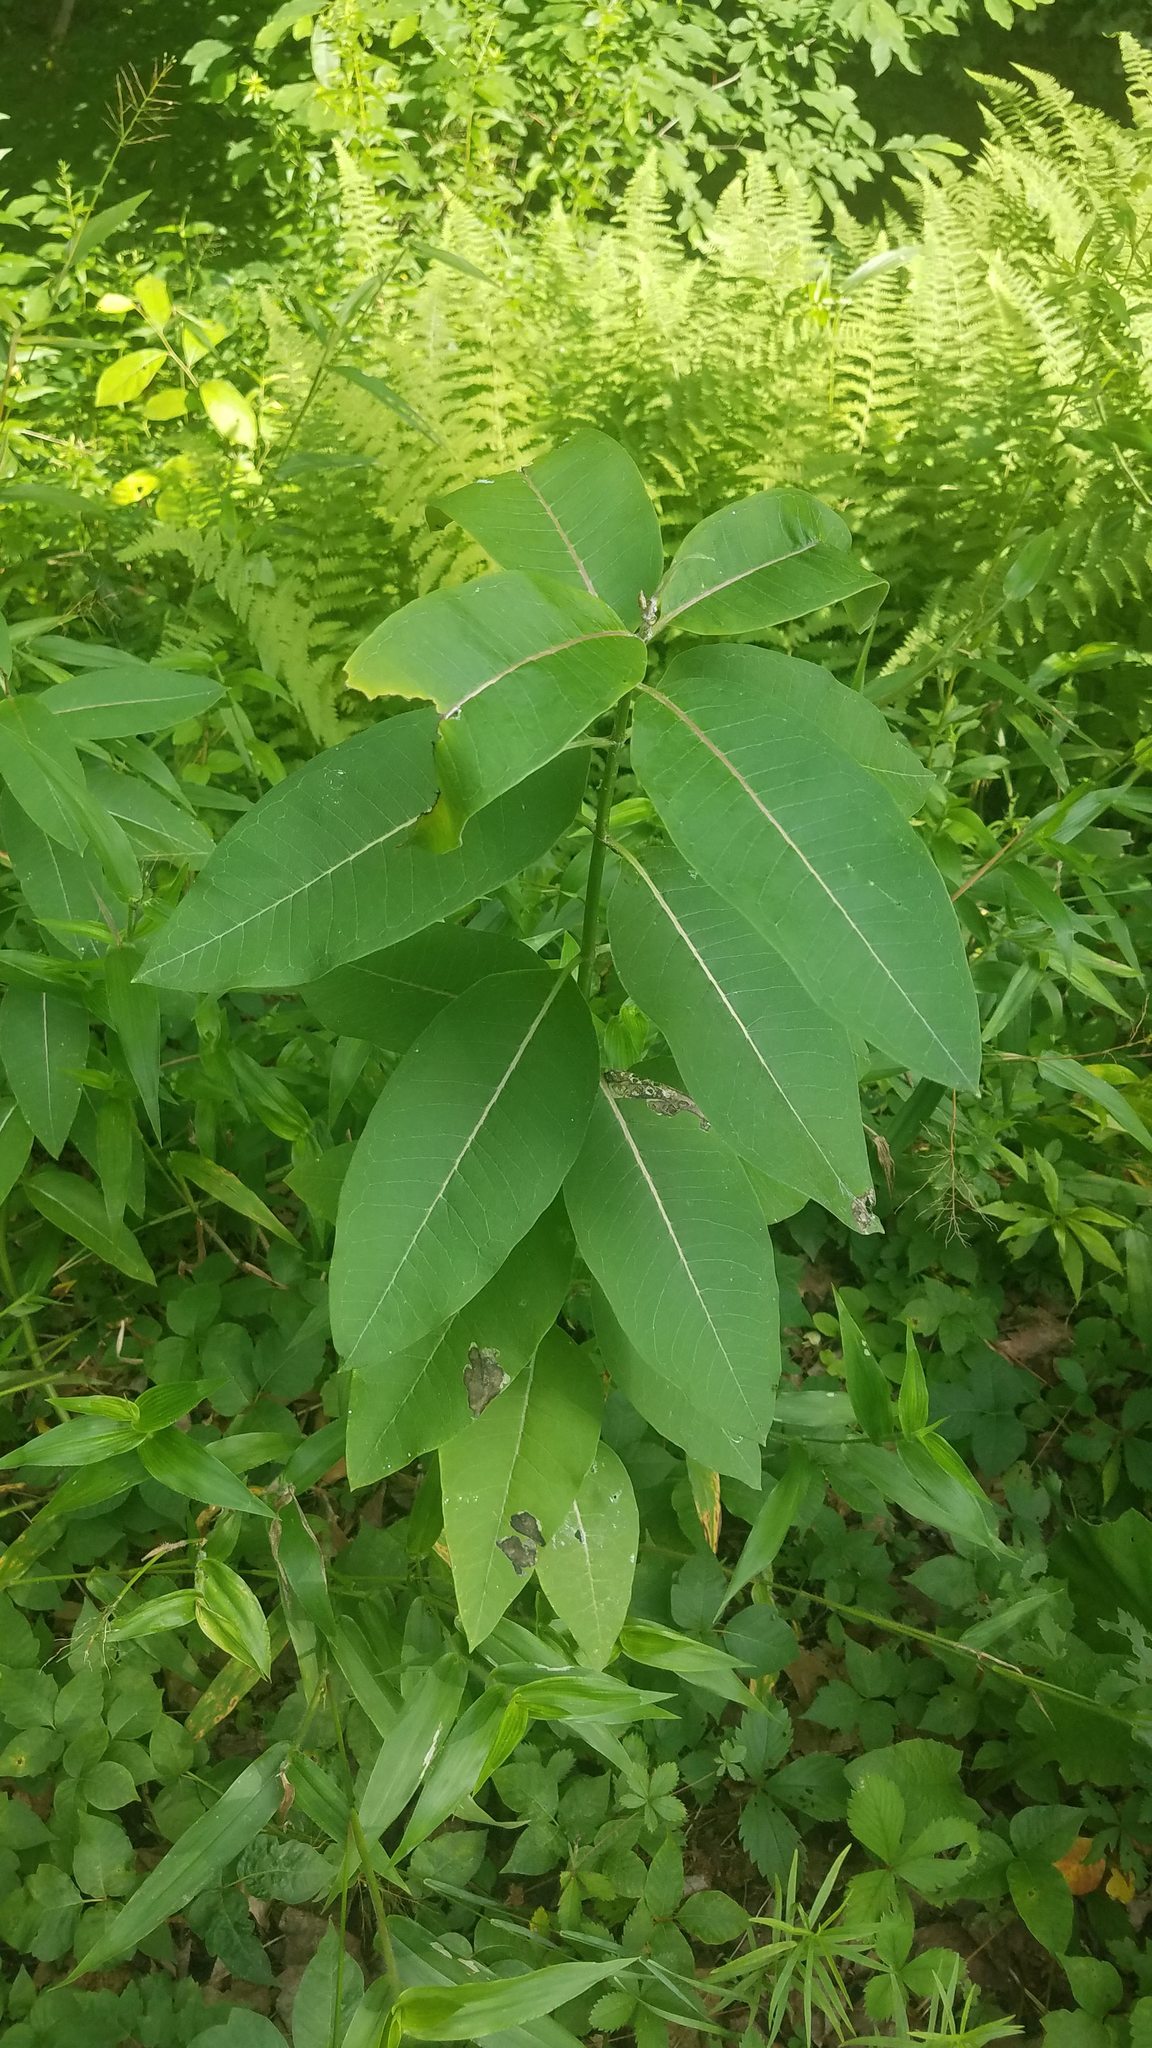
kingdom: Plantae
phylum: Tracheophyta
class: Magnoliopsida
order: Gentianales
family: Apocynaceae
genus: Asclepias
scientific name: Asclepias syriaca
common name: Common milkweed
